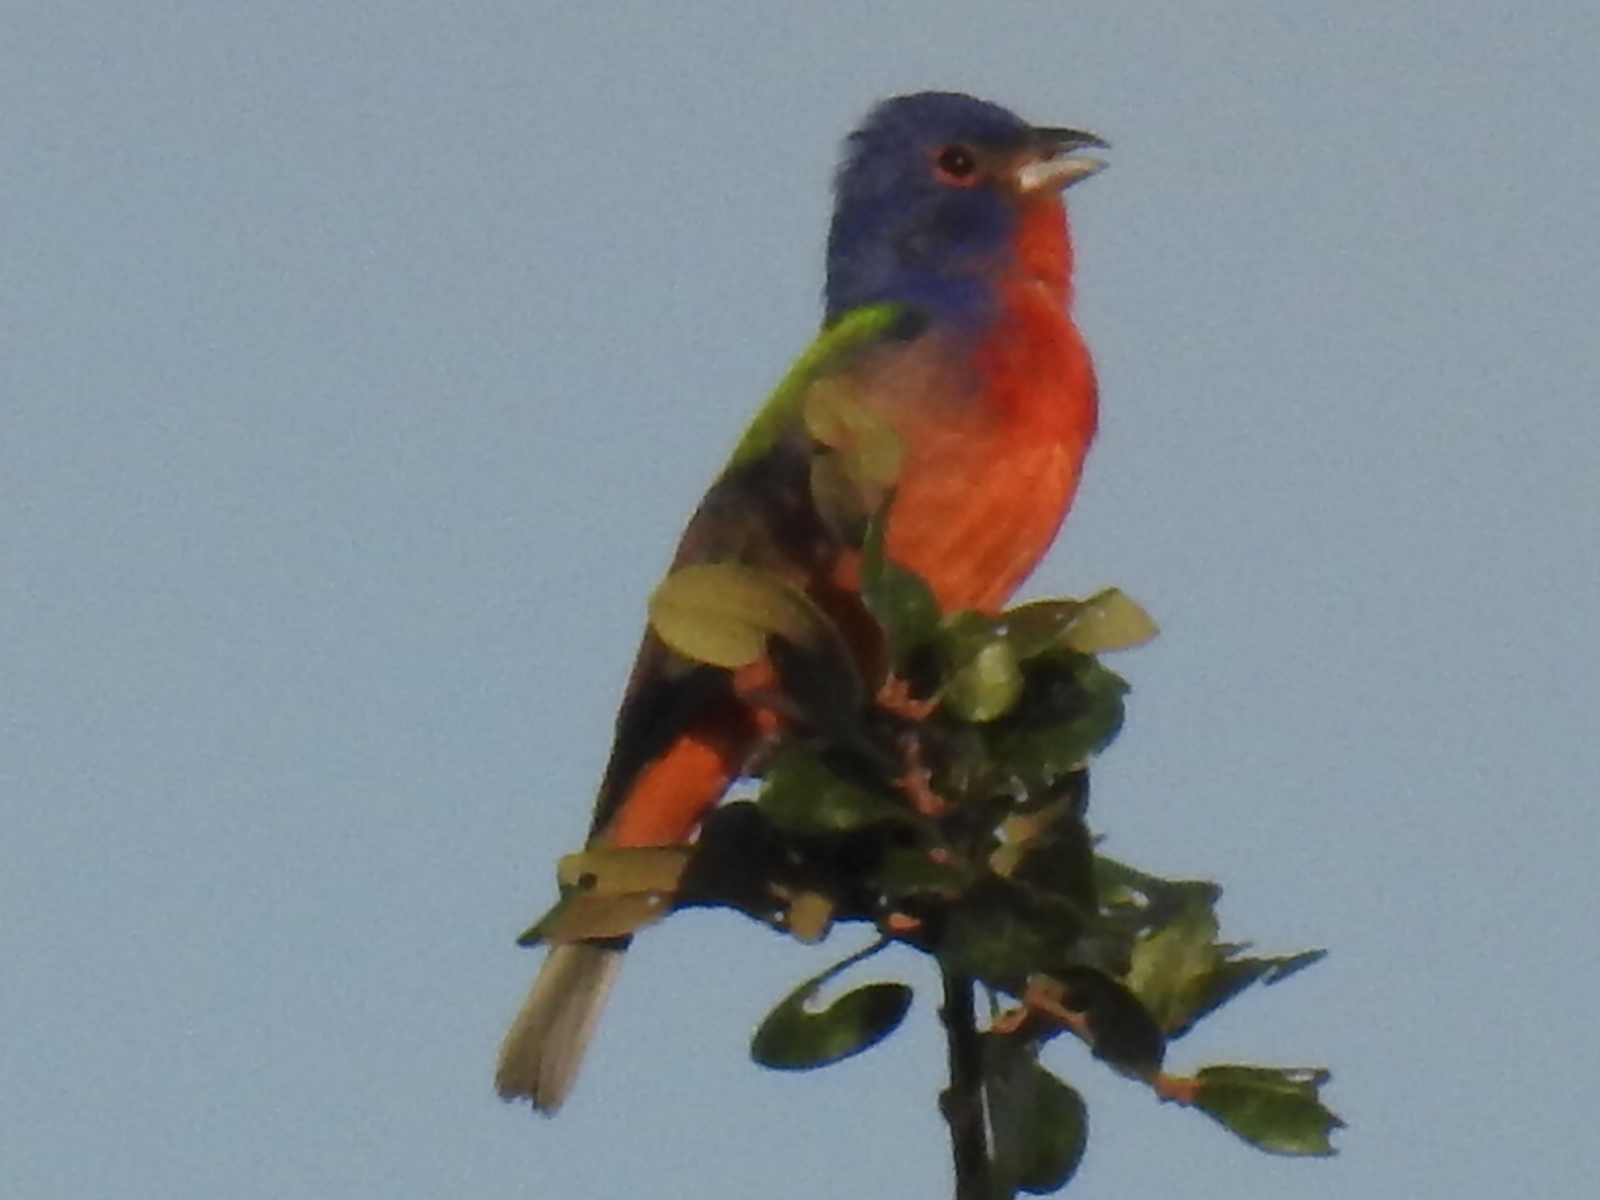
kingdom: Animalia
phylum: Chordata
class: Aves
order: Passeriformes
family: Cardinalidae
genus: Passerina
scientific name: Passerina ciris
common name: Painted bunting
